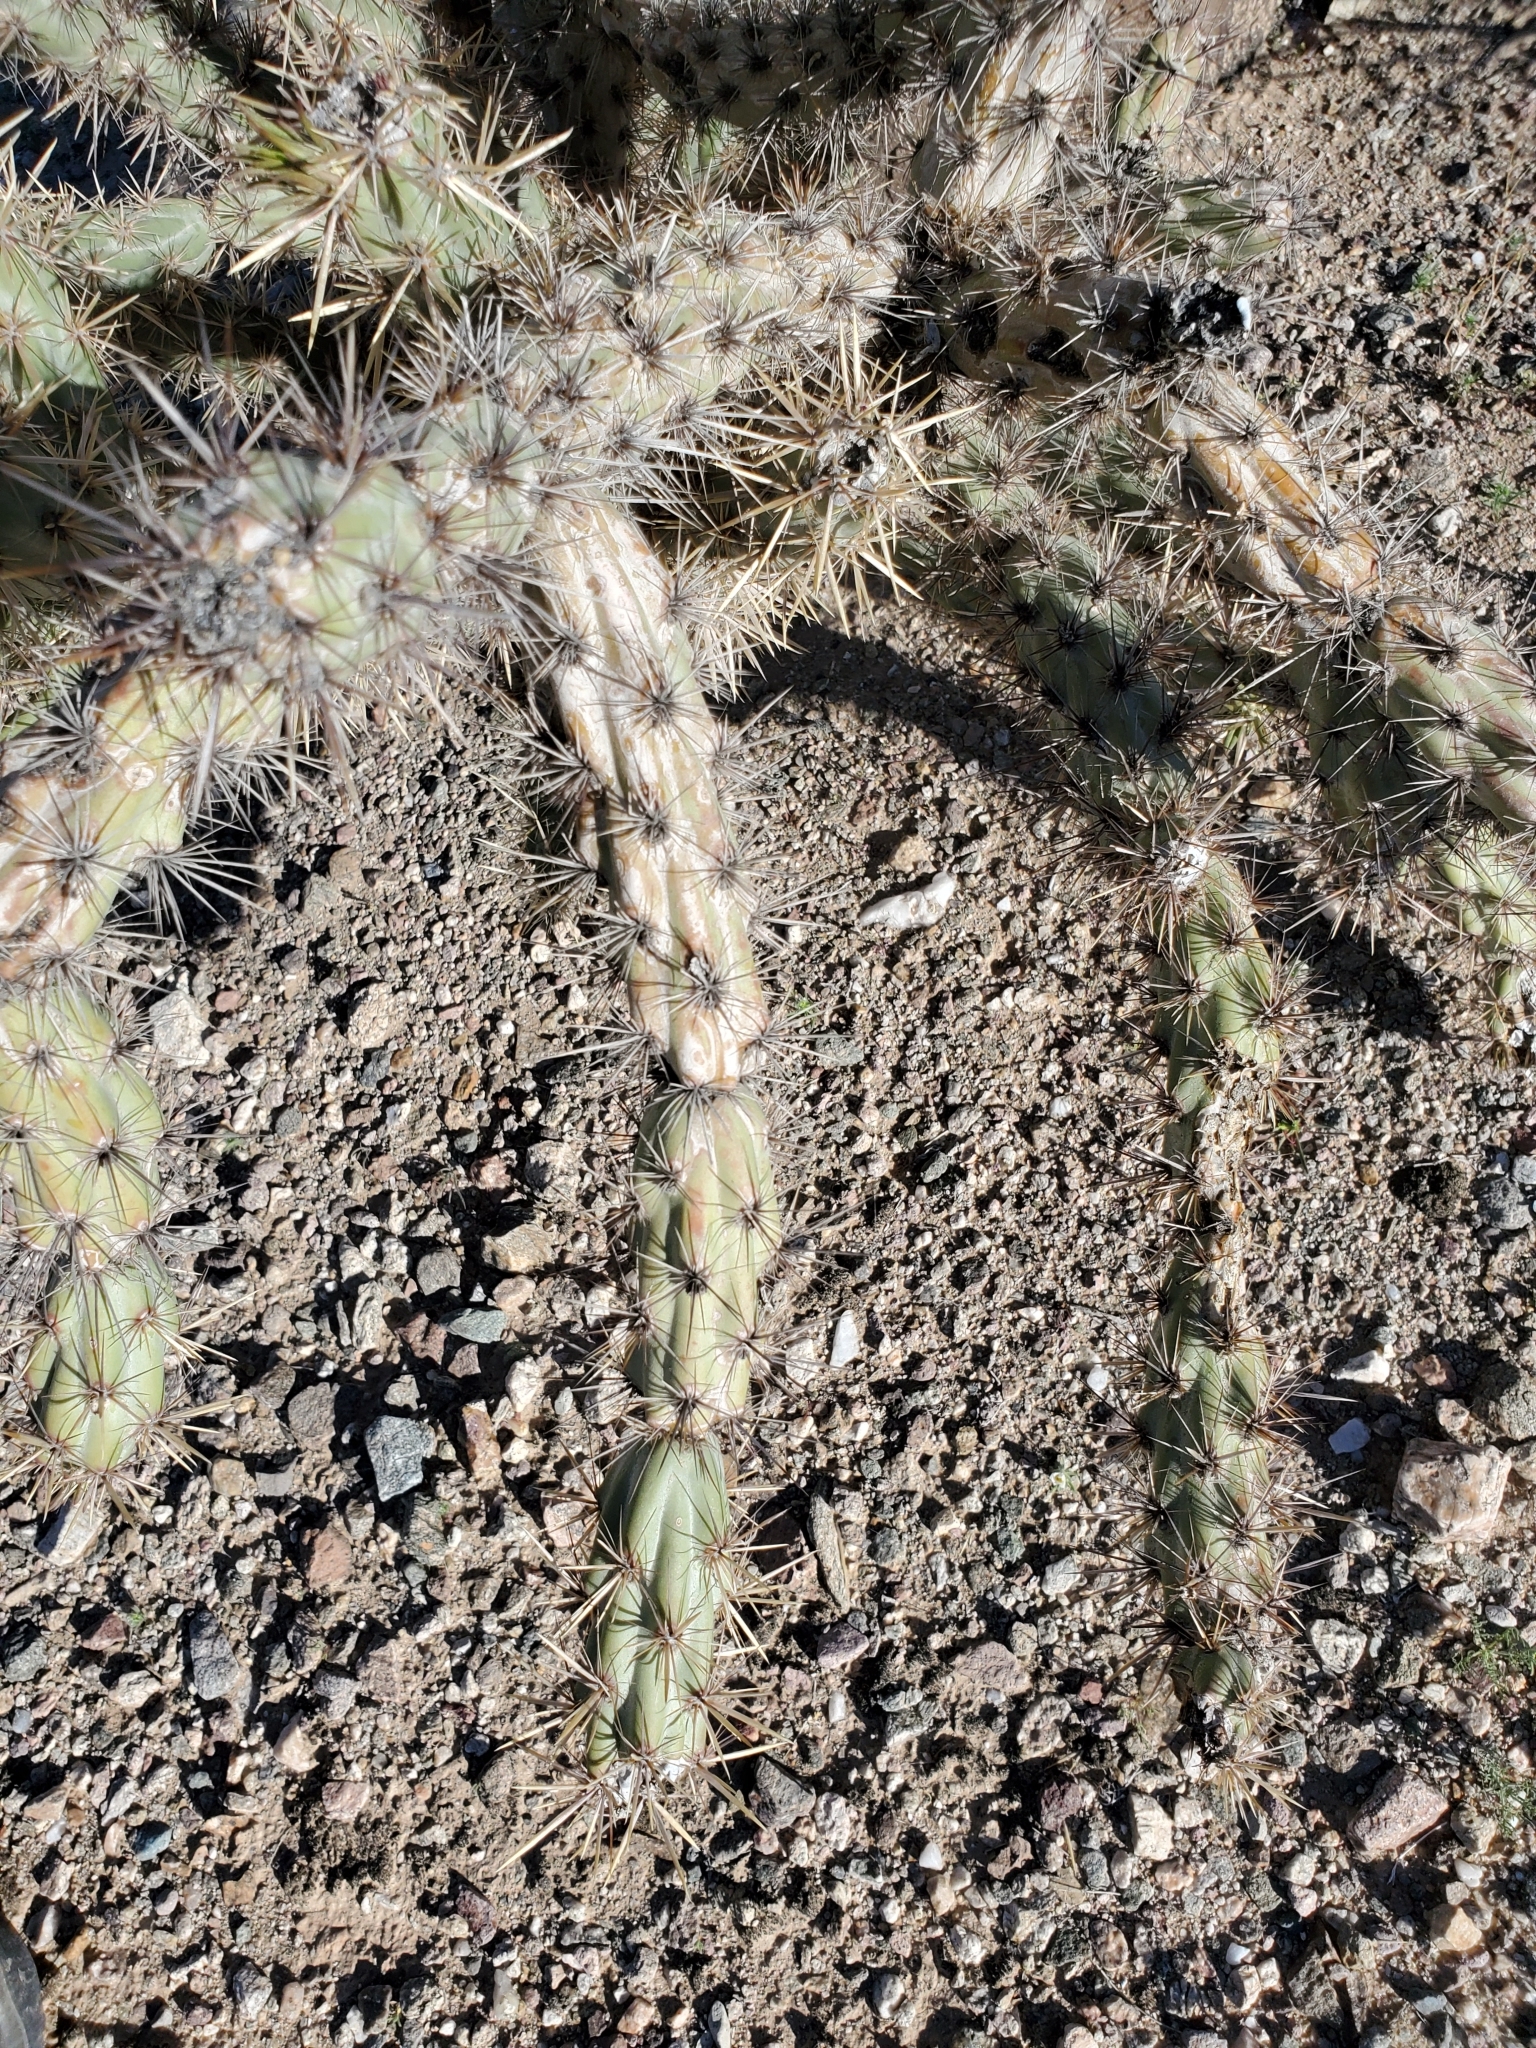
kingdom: Plantae
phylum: Tracheophyta
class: Magnoliopsida
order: Caryophyllales
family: Cactaceae
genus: Cylindropuntia
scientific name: Cylindropuntia acanthocarpa
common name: Buckhorn cholla
